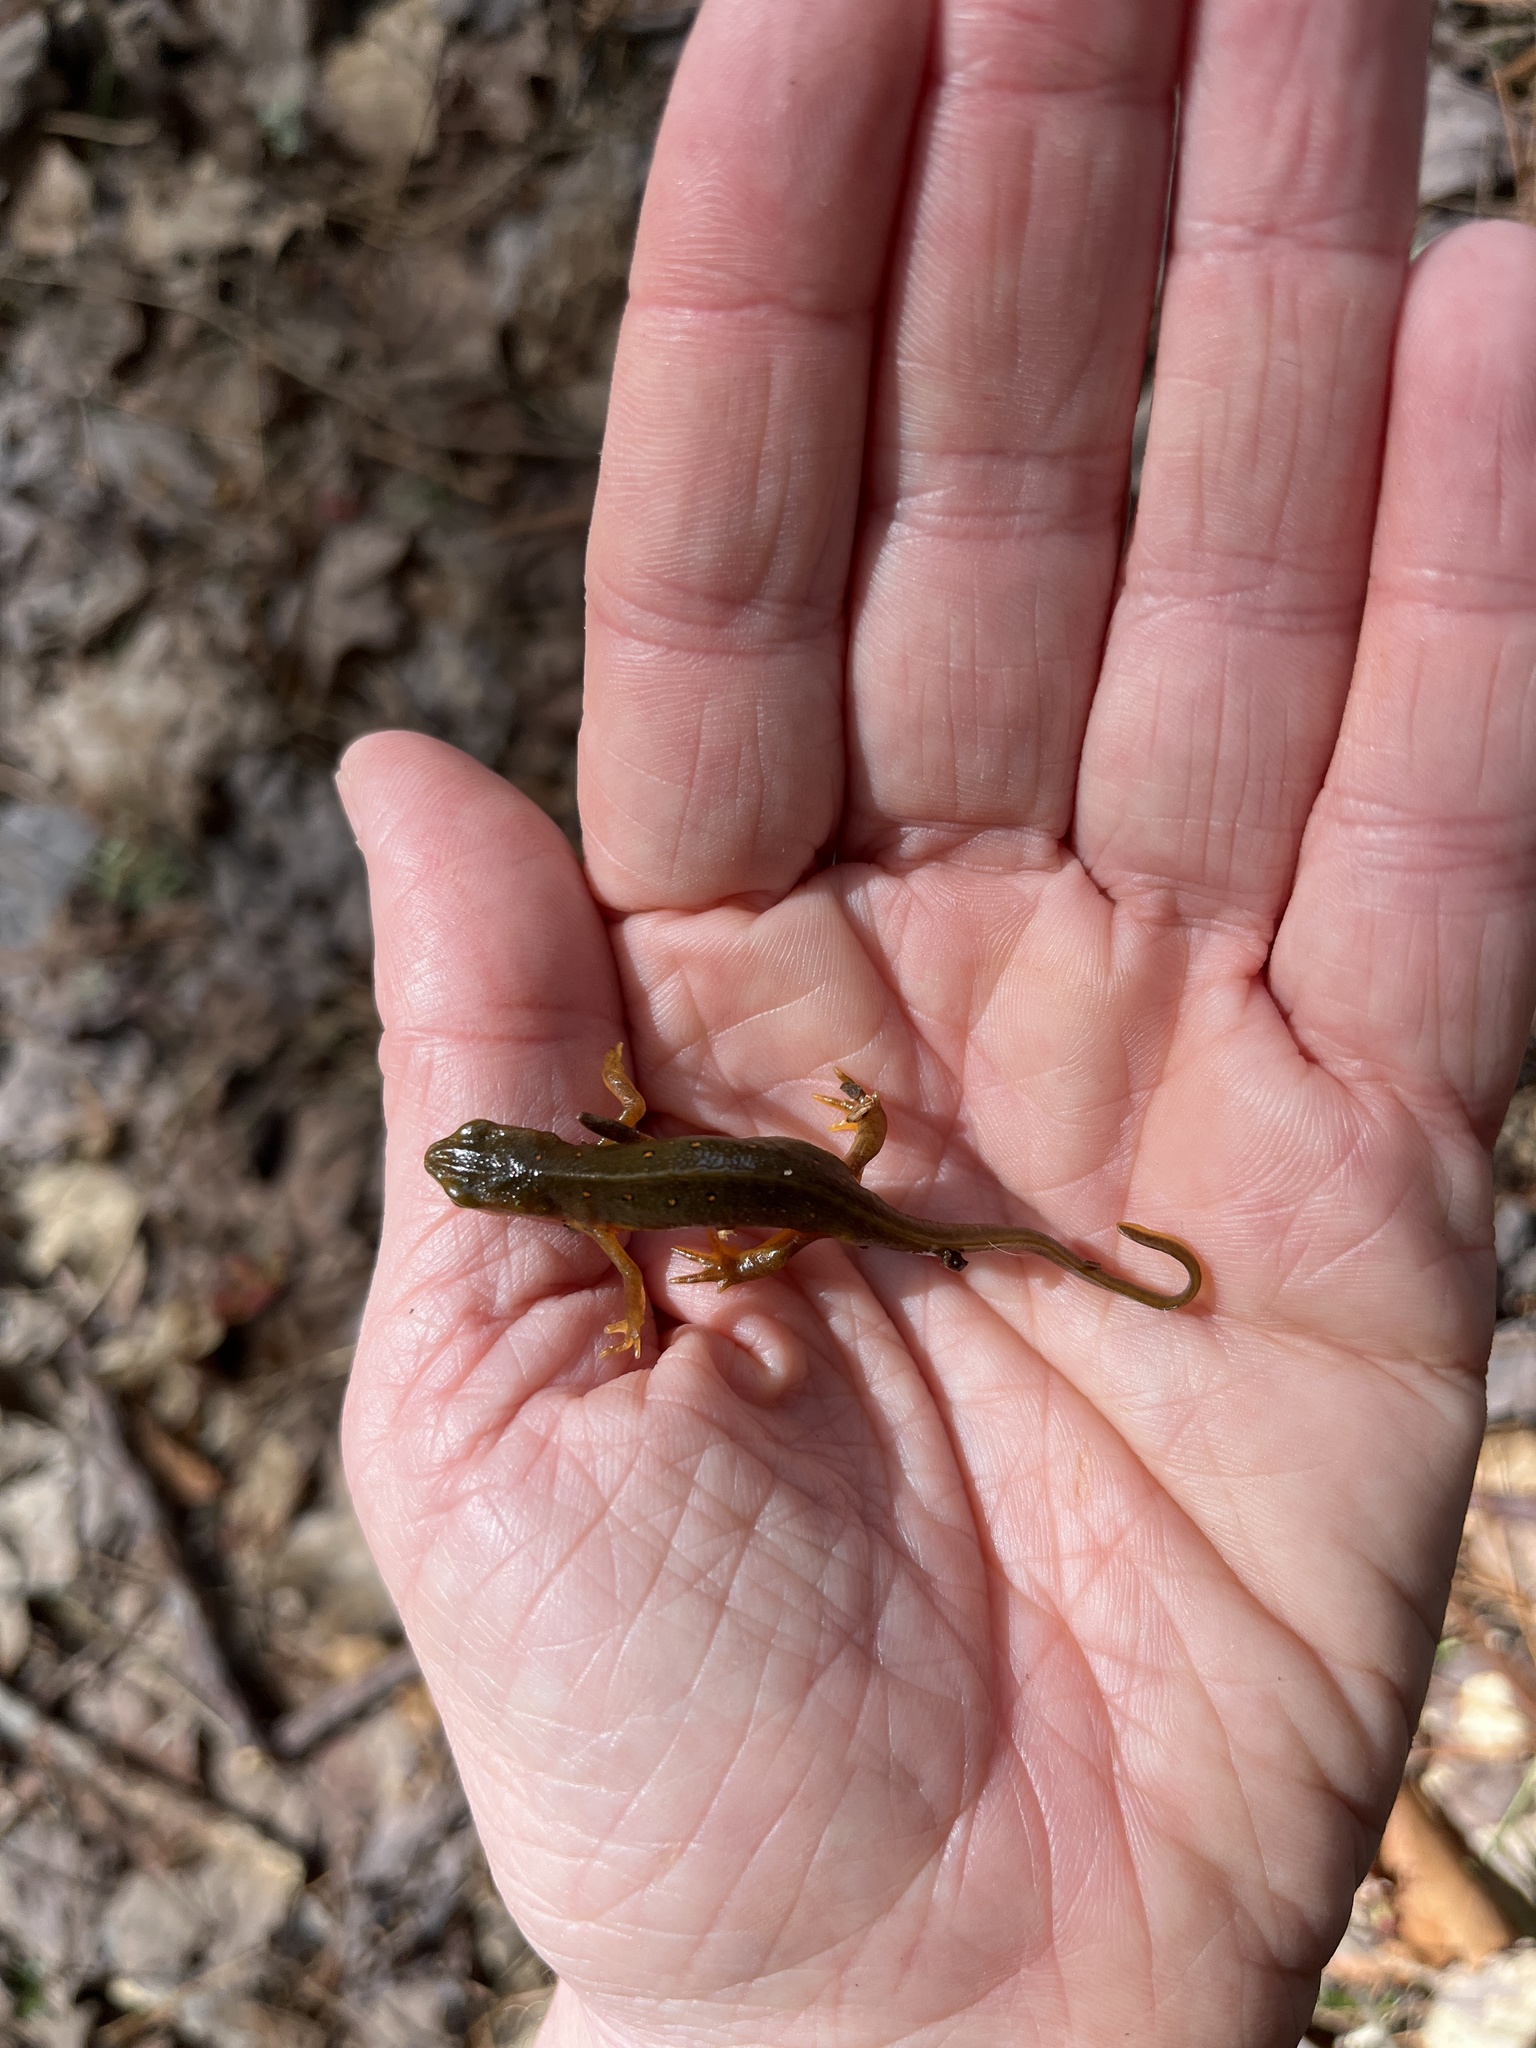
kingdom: Animalia
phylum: Chordata
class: Amphibia
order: Caudata
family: Salamandridae
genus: Notophthalmus
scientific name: Notophthalmus viridescens
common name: Eastern newt
